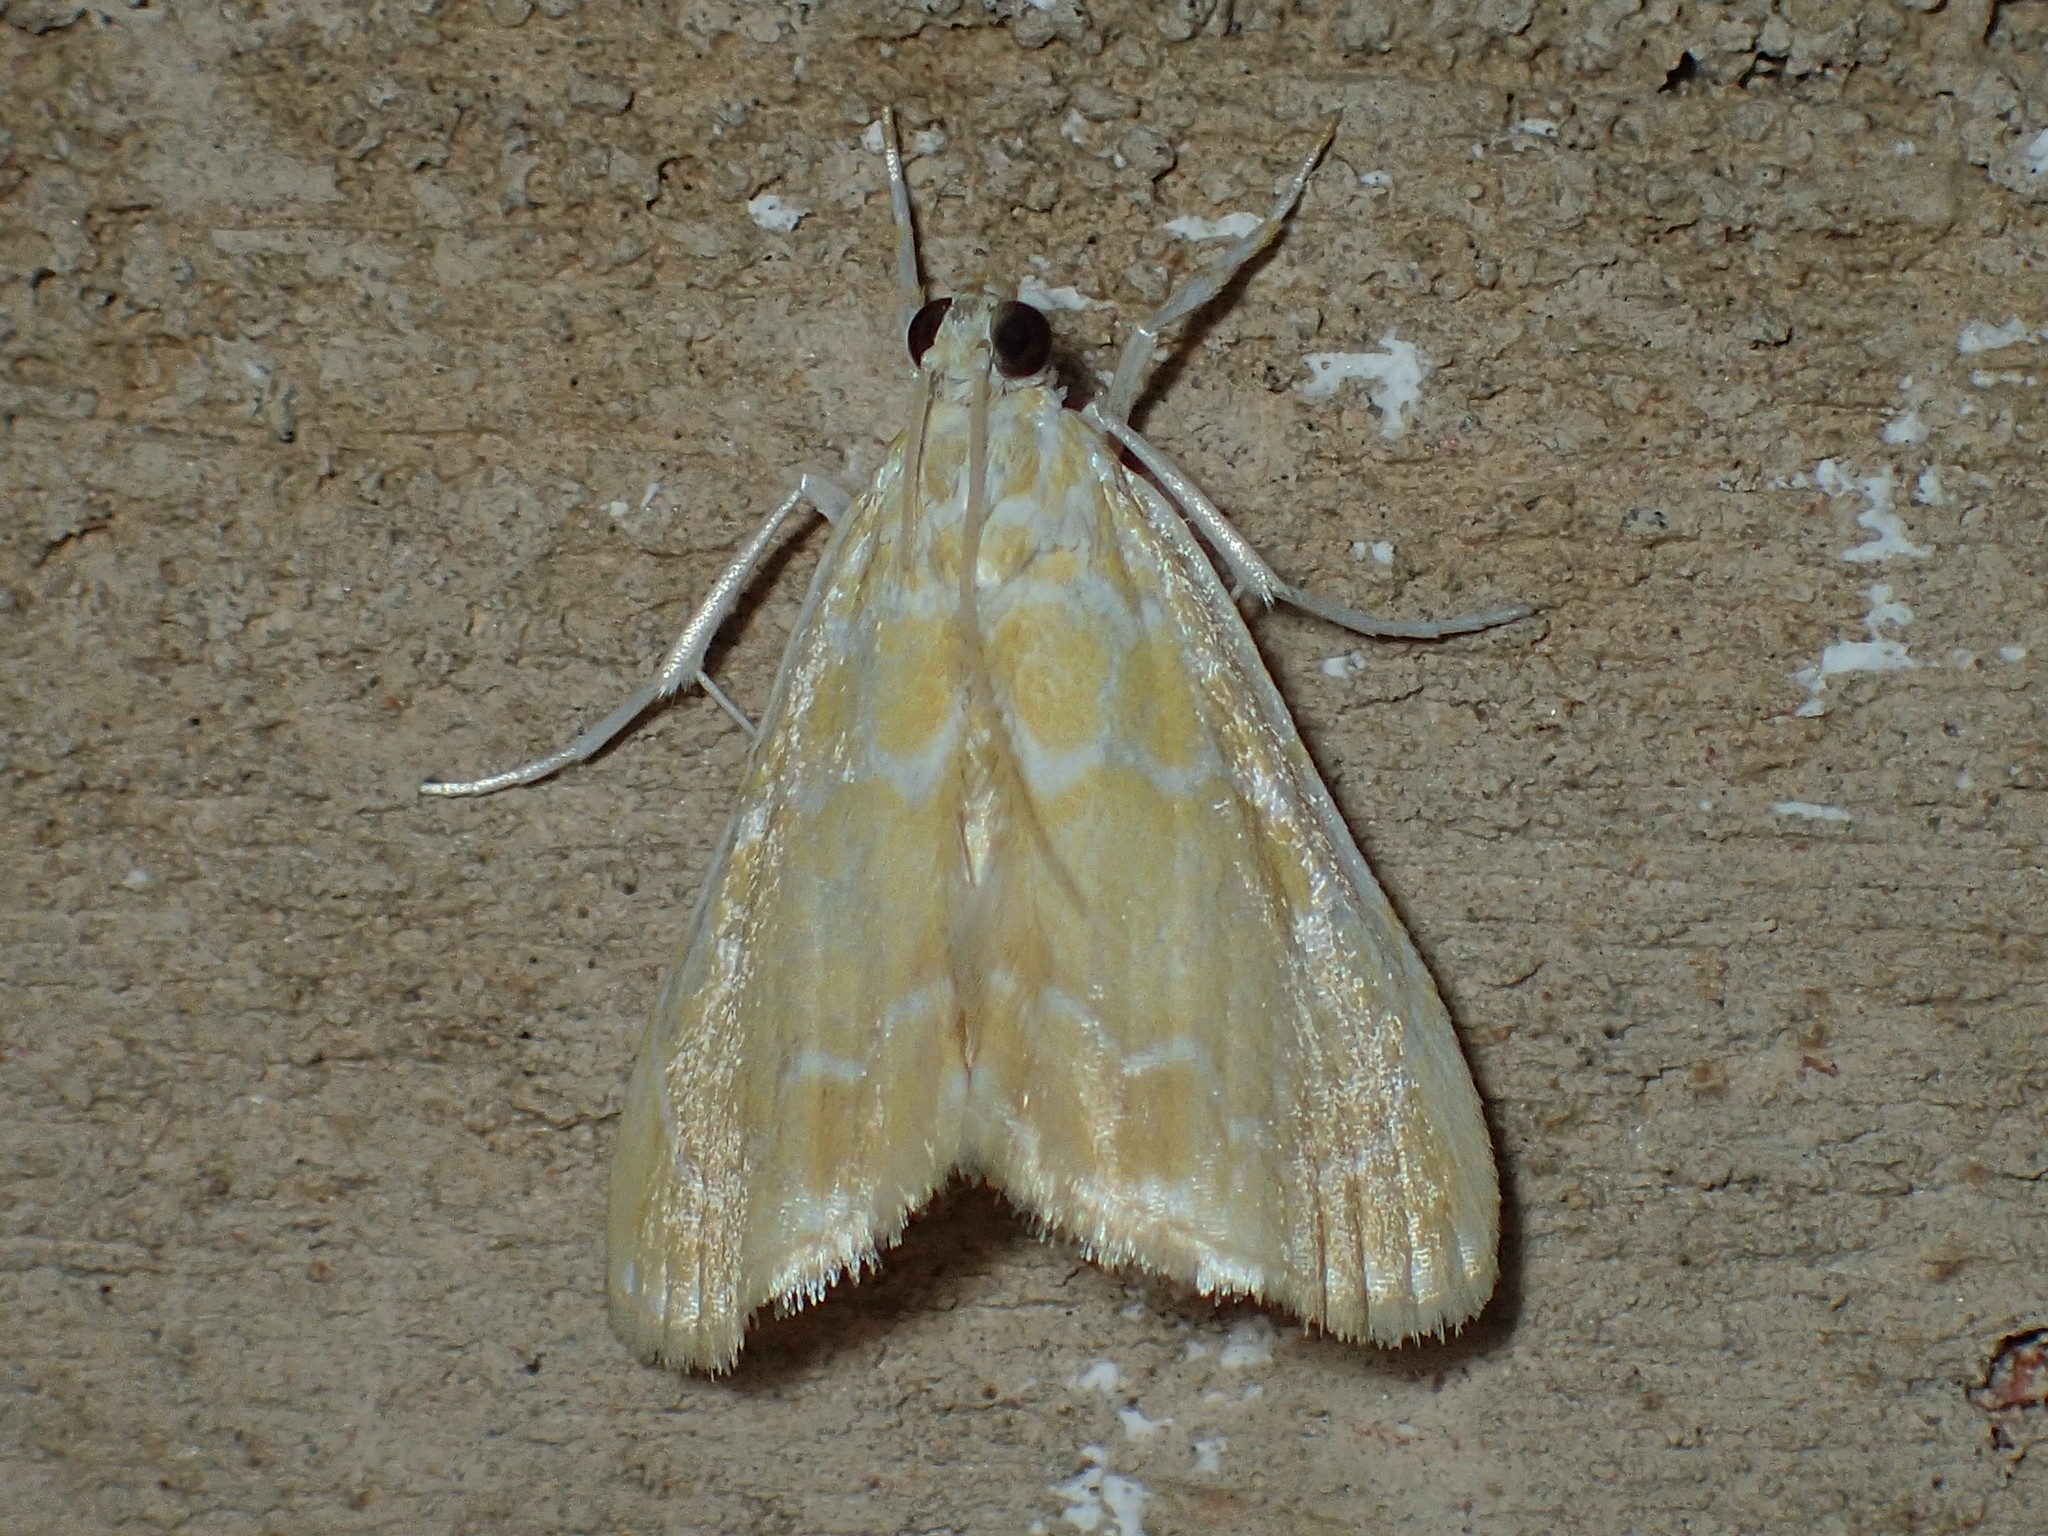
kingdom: Animalia
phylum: Arthropoda
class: Insecta
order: Lepidoptera
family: Crambidae
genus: Glaphyria
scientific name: Glaphyria glaphyralis
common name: Common glaphyria moth
